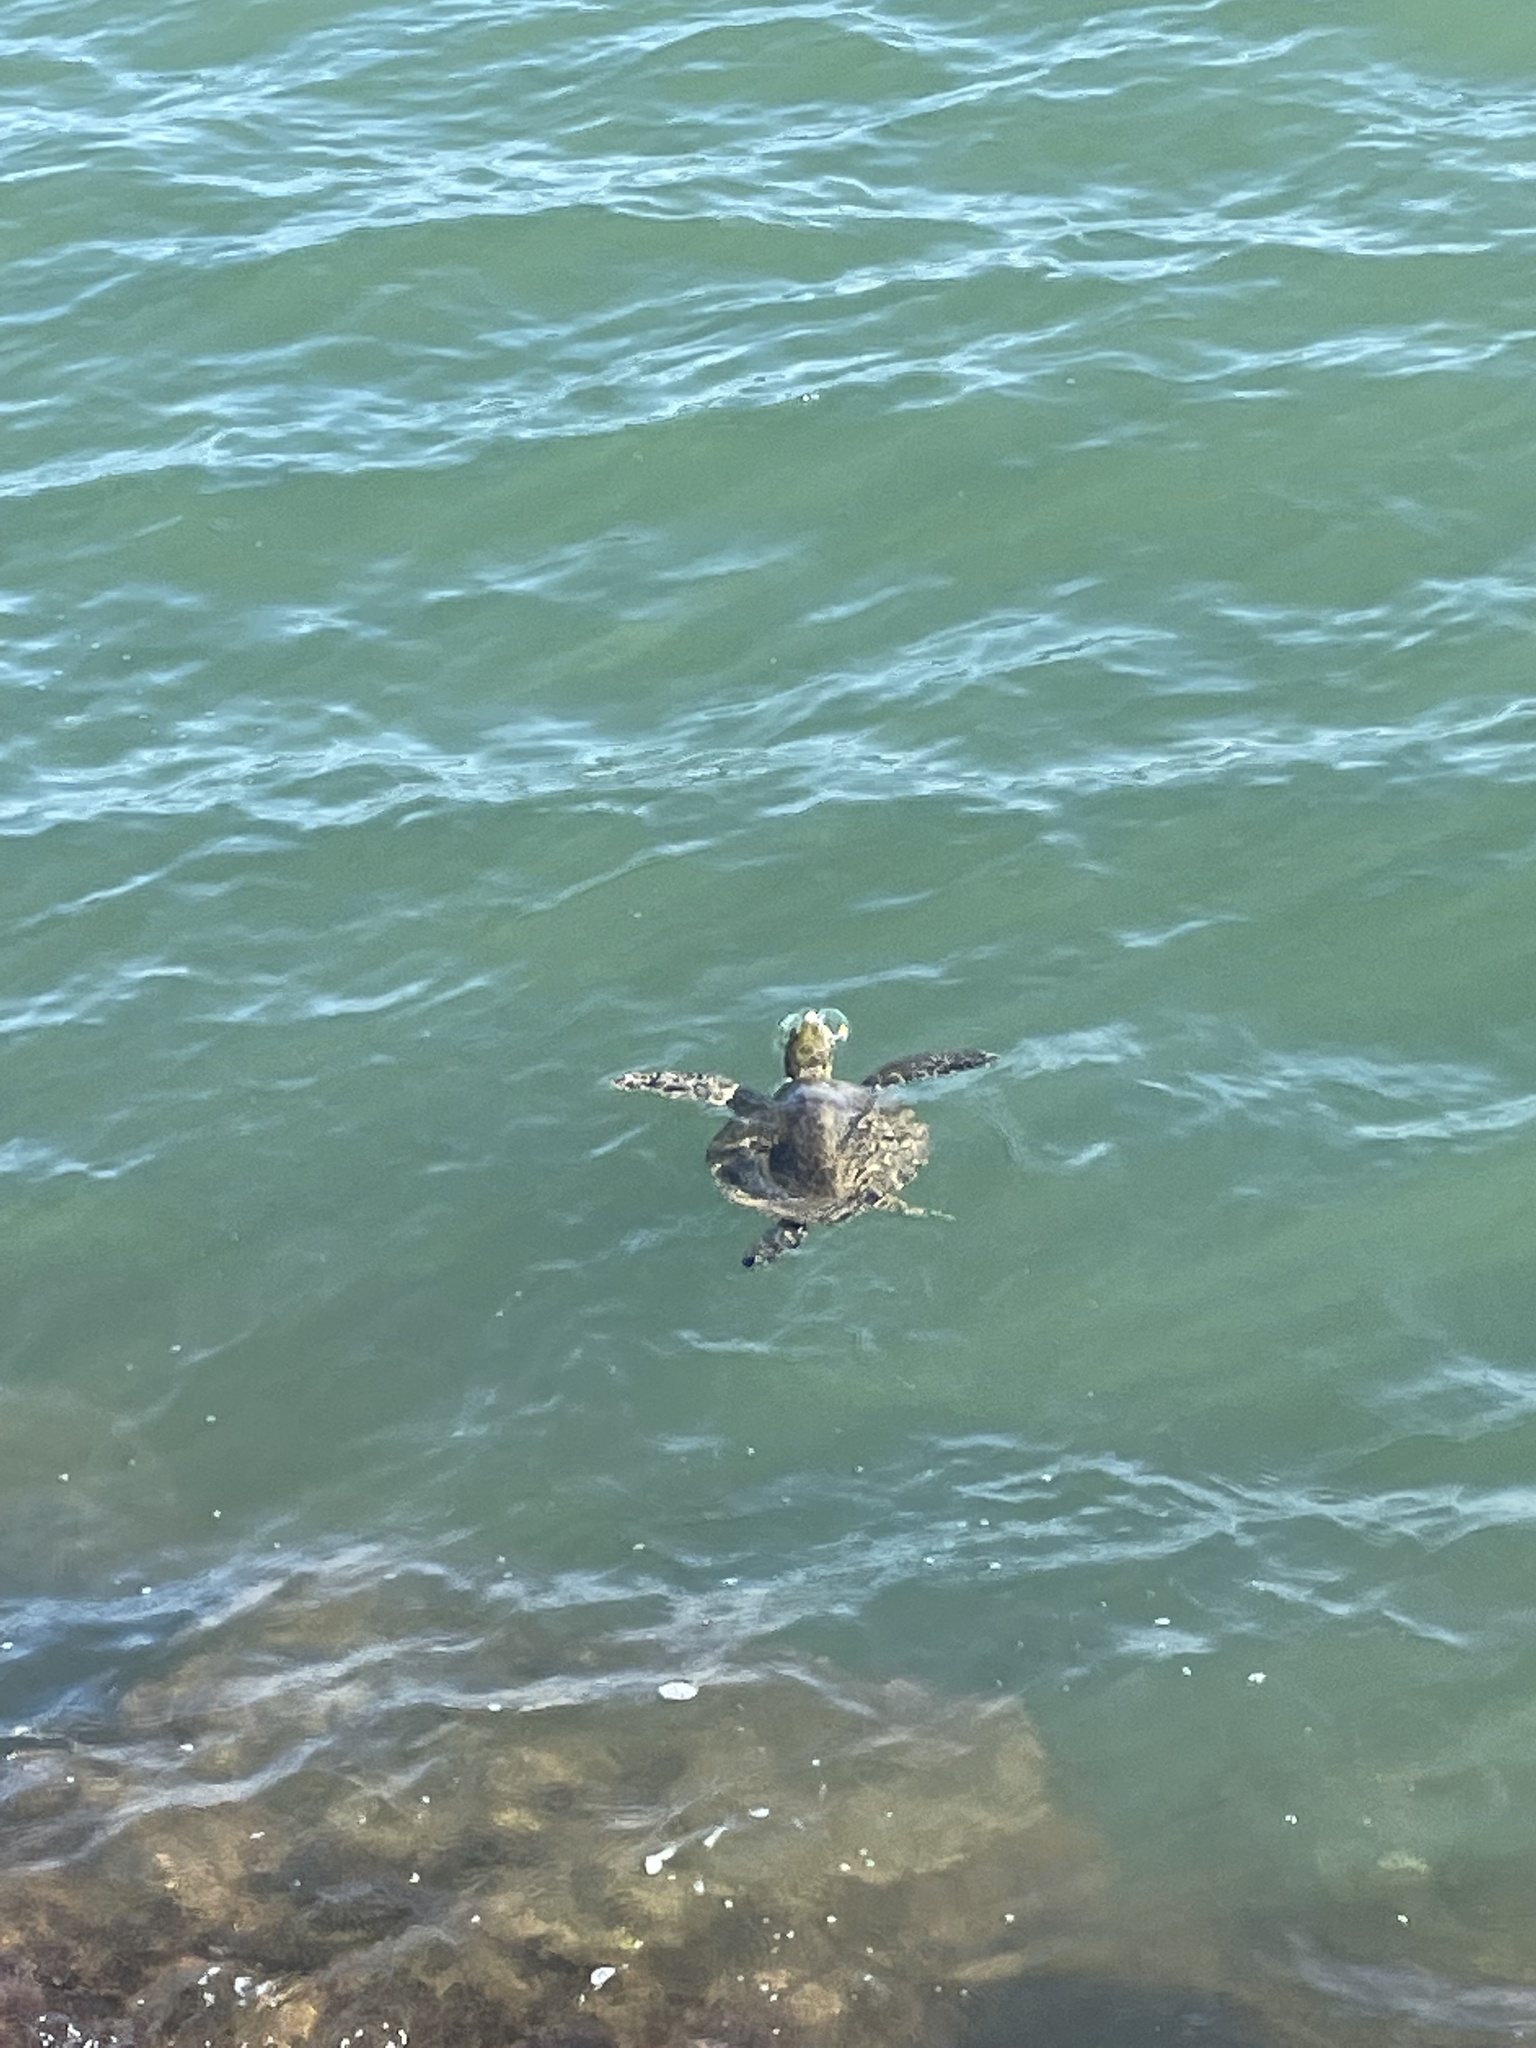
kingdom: Animalia
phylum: Chordata
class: Testudines
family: Cheloniidae
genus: Chelonia
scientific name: Chelonia mydas
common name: Green turtle
